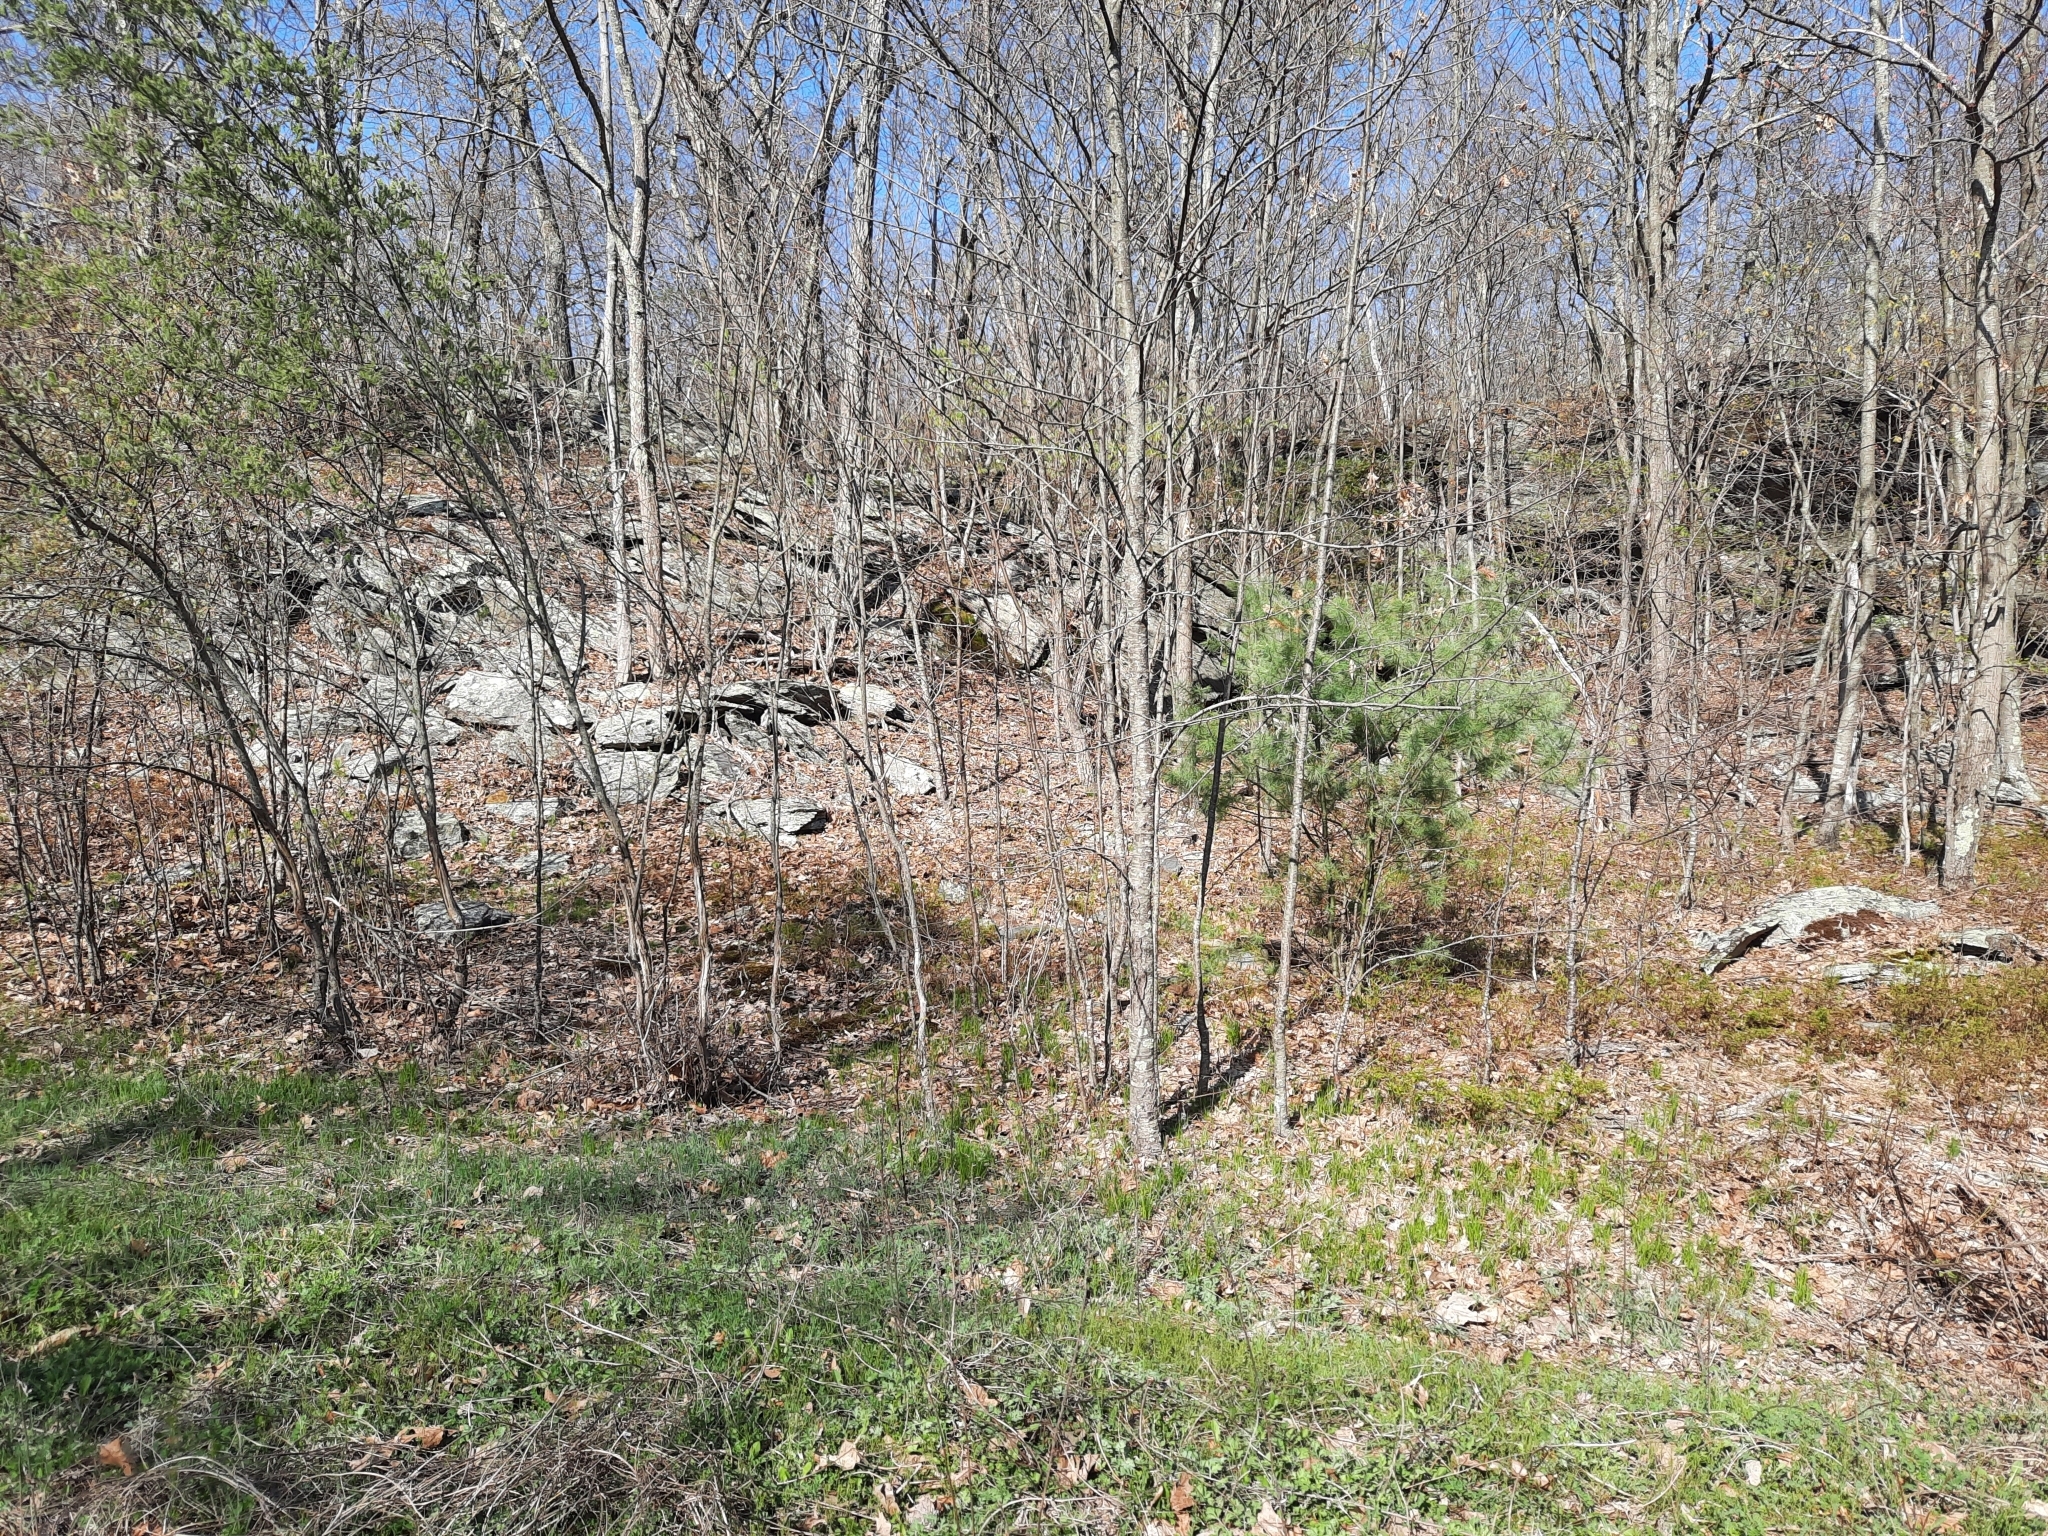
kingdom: Plantae
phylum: Tracheophyta
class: Pinopsida
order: Pinales
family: Pinaceae
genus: Pinus
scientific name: Pinus strobus
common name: Weymouth pine
